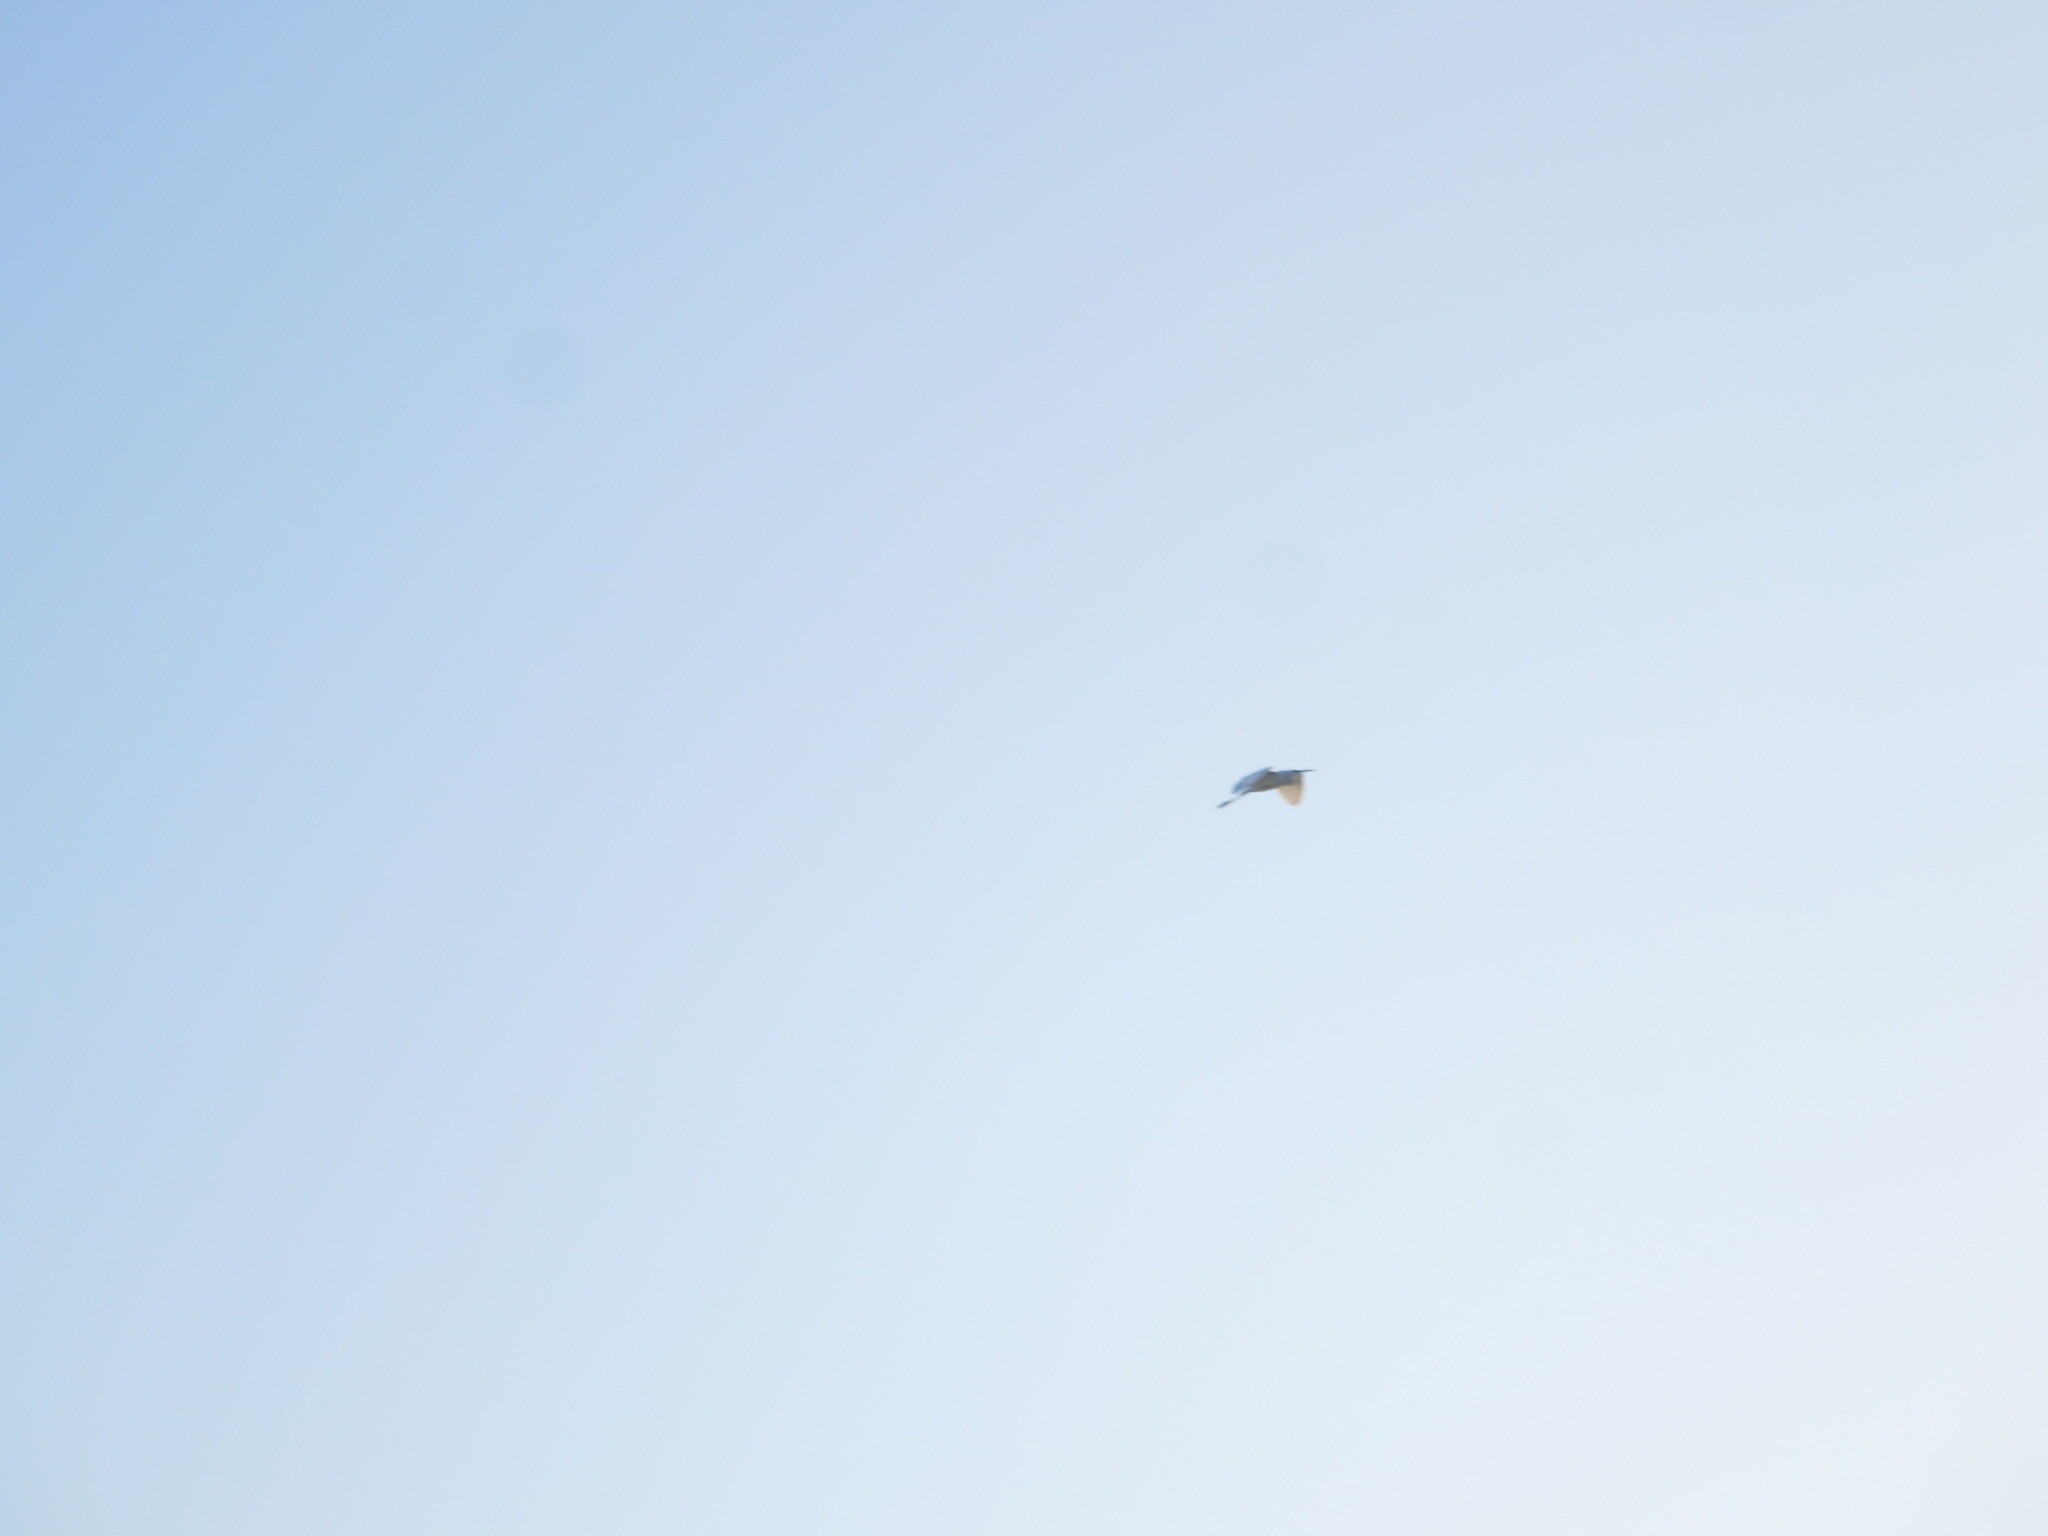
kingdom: Animalia
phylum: Chordata
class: Aves
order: Pelecaniformes
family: Ardeidae
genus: Egretta
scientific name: Egretta thula
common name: Snowy egret
